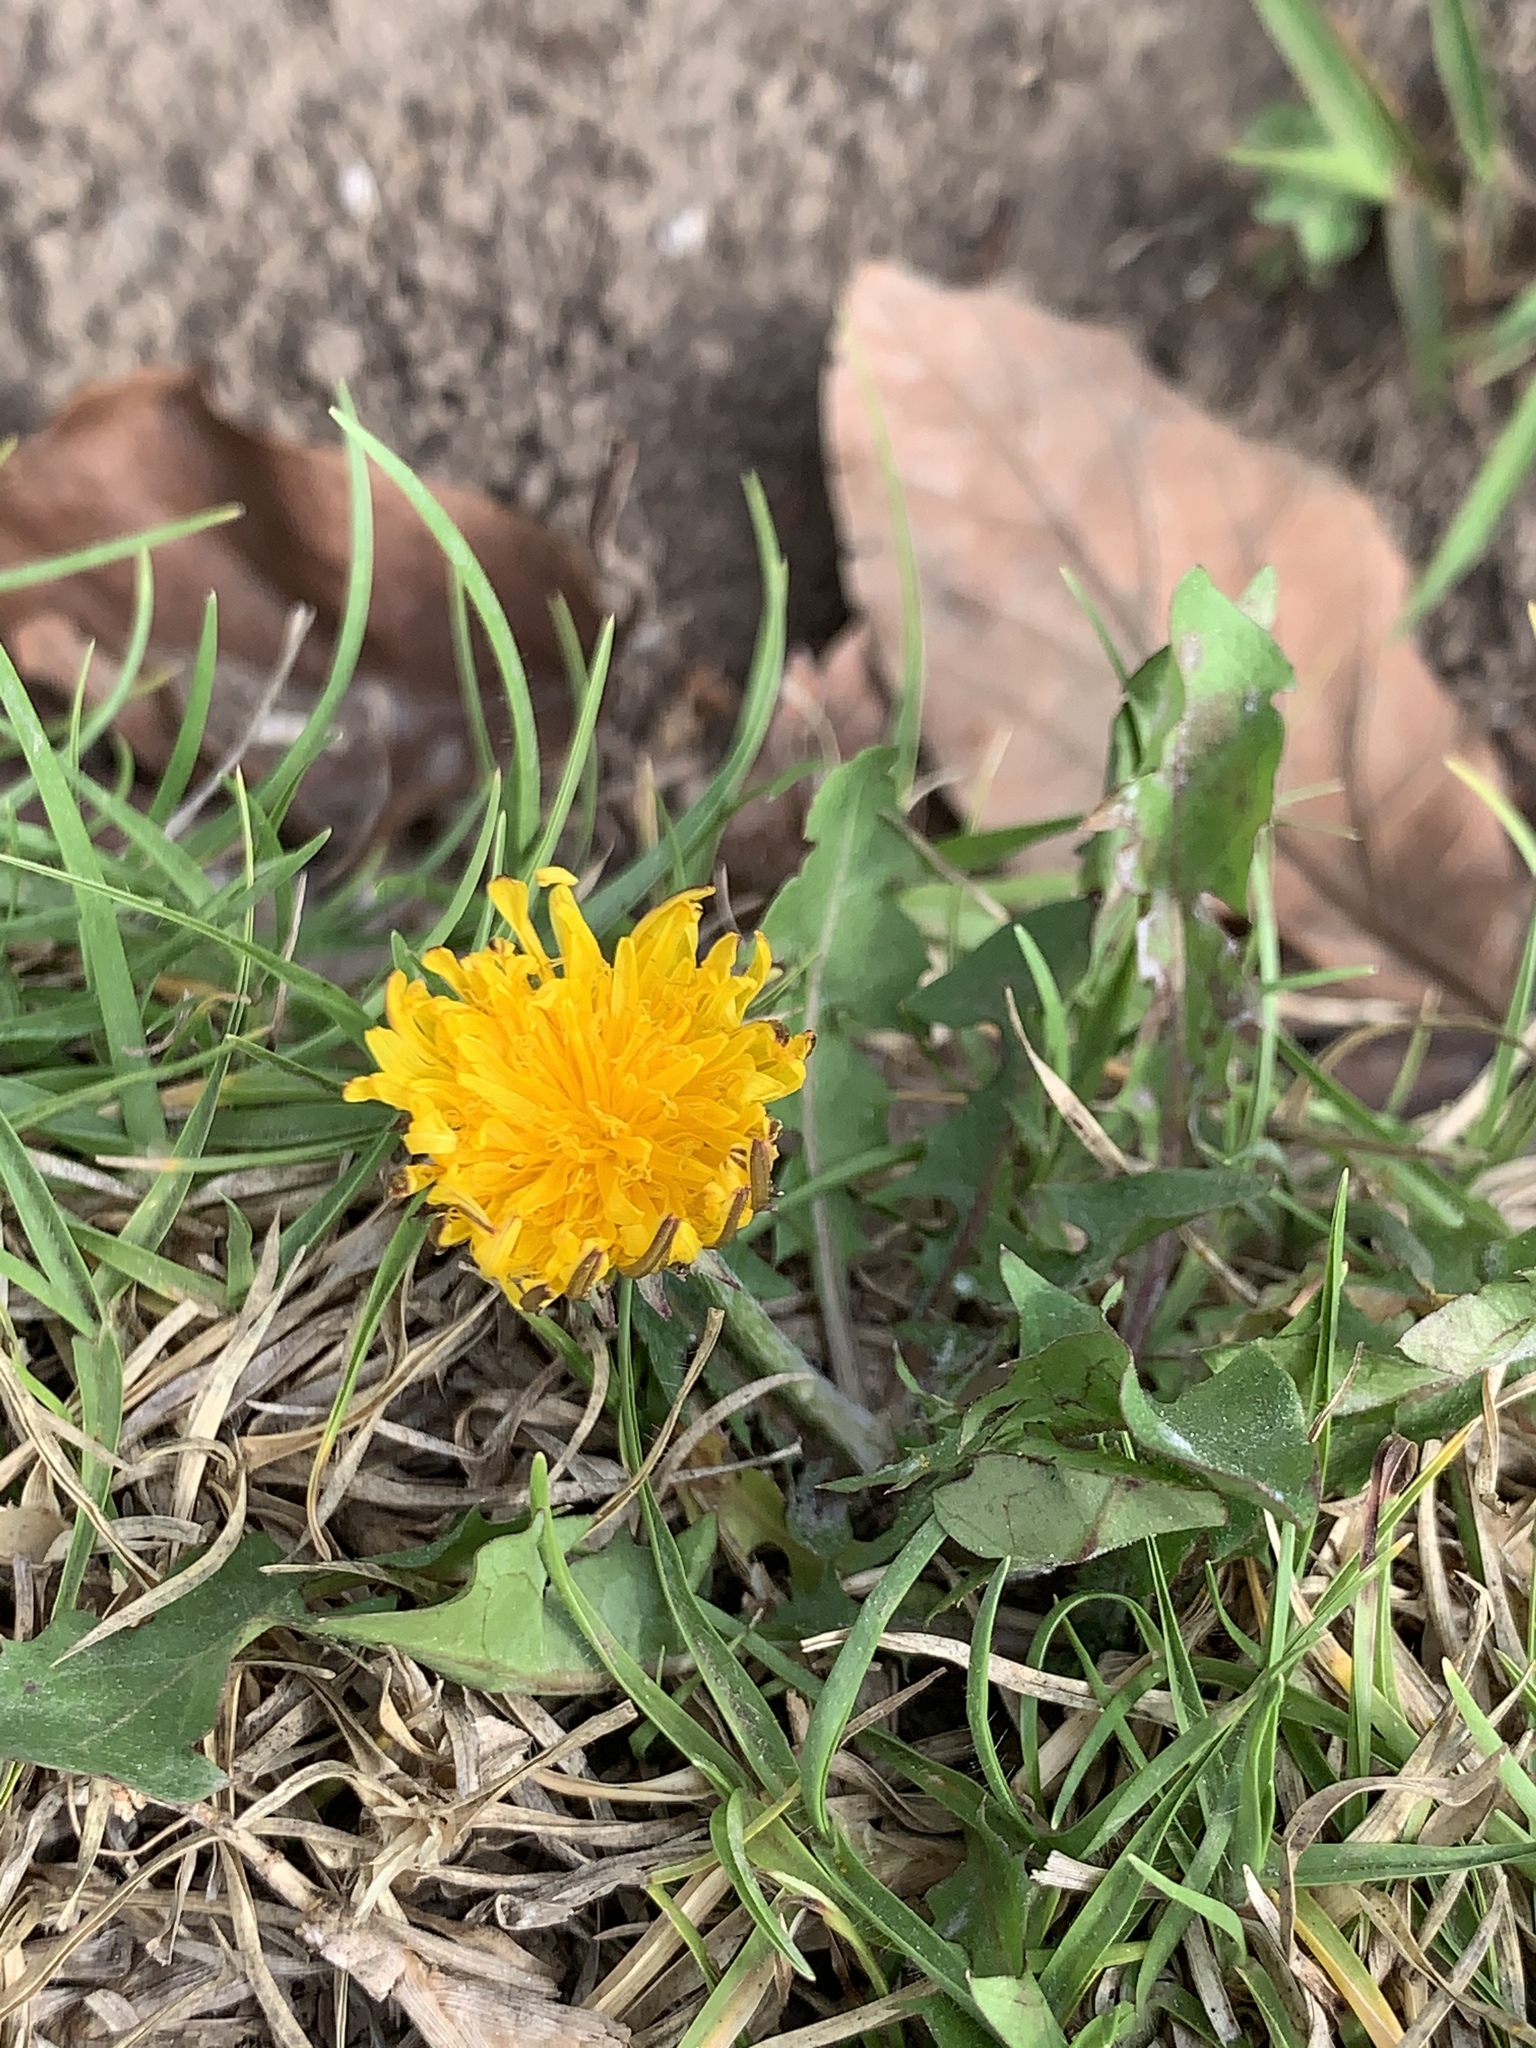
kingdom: Plantae
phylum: Tracheophyta
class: Magnoliopsida
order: Asterales
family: Asteraceae
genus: Taraxacum
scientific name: Taraxacum officinale
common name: Common dandelion
